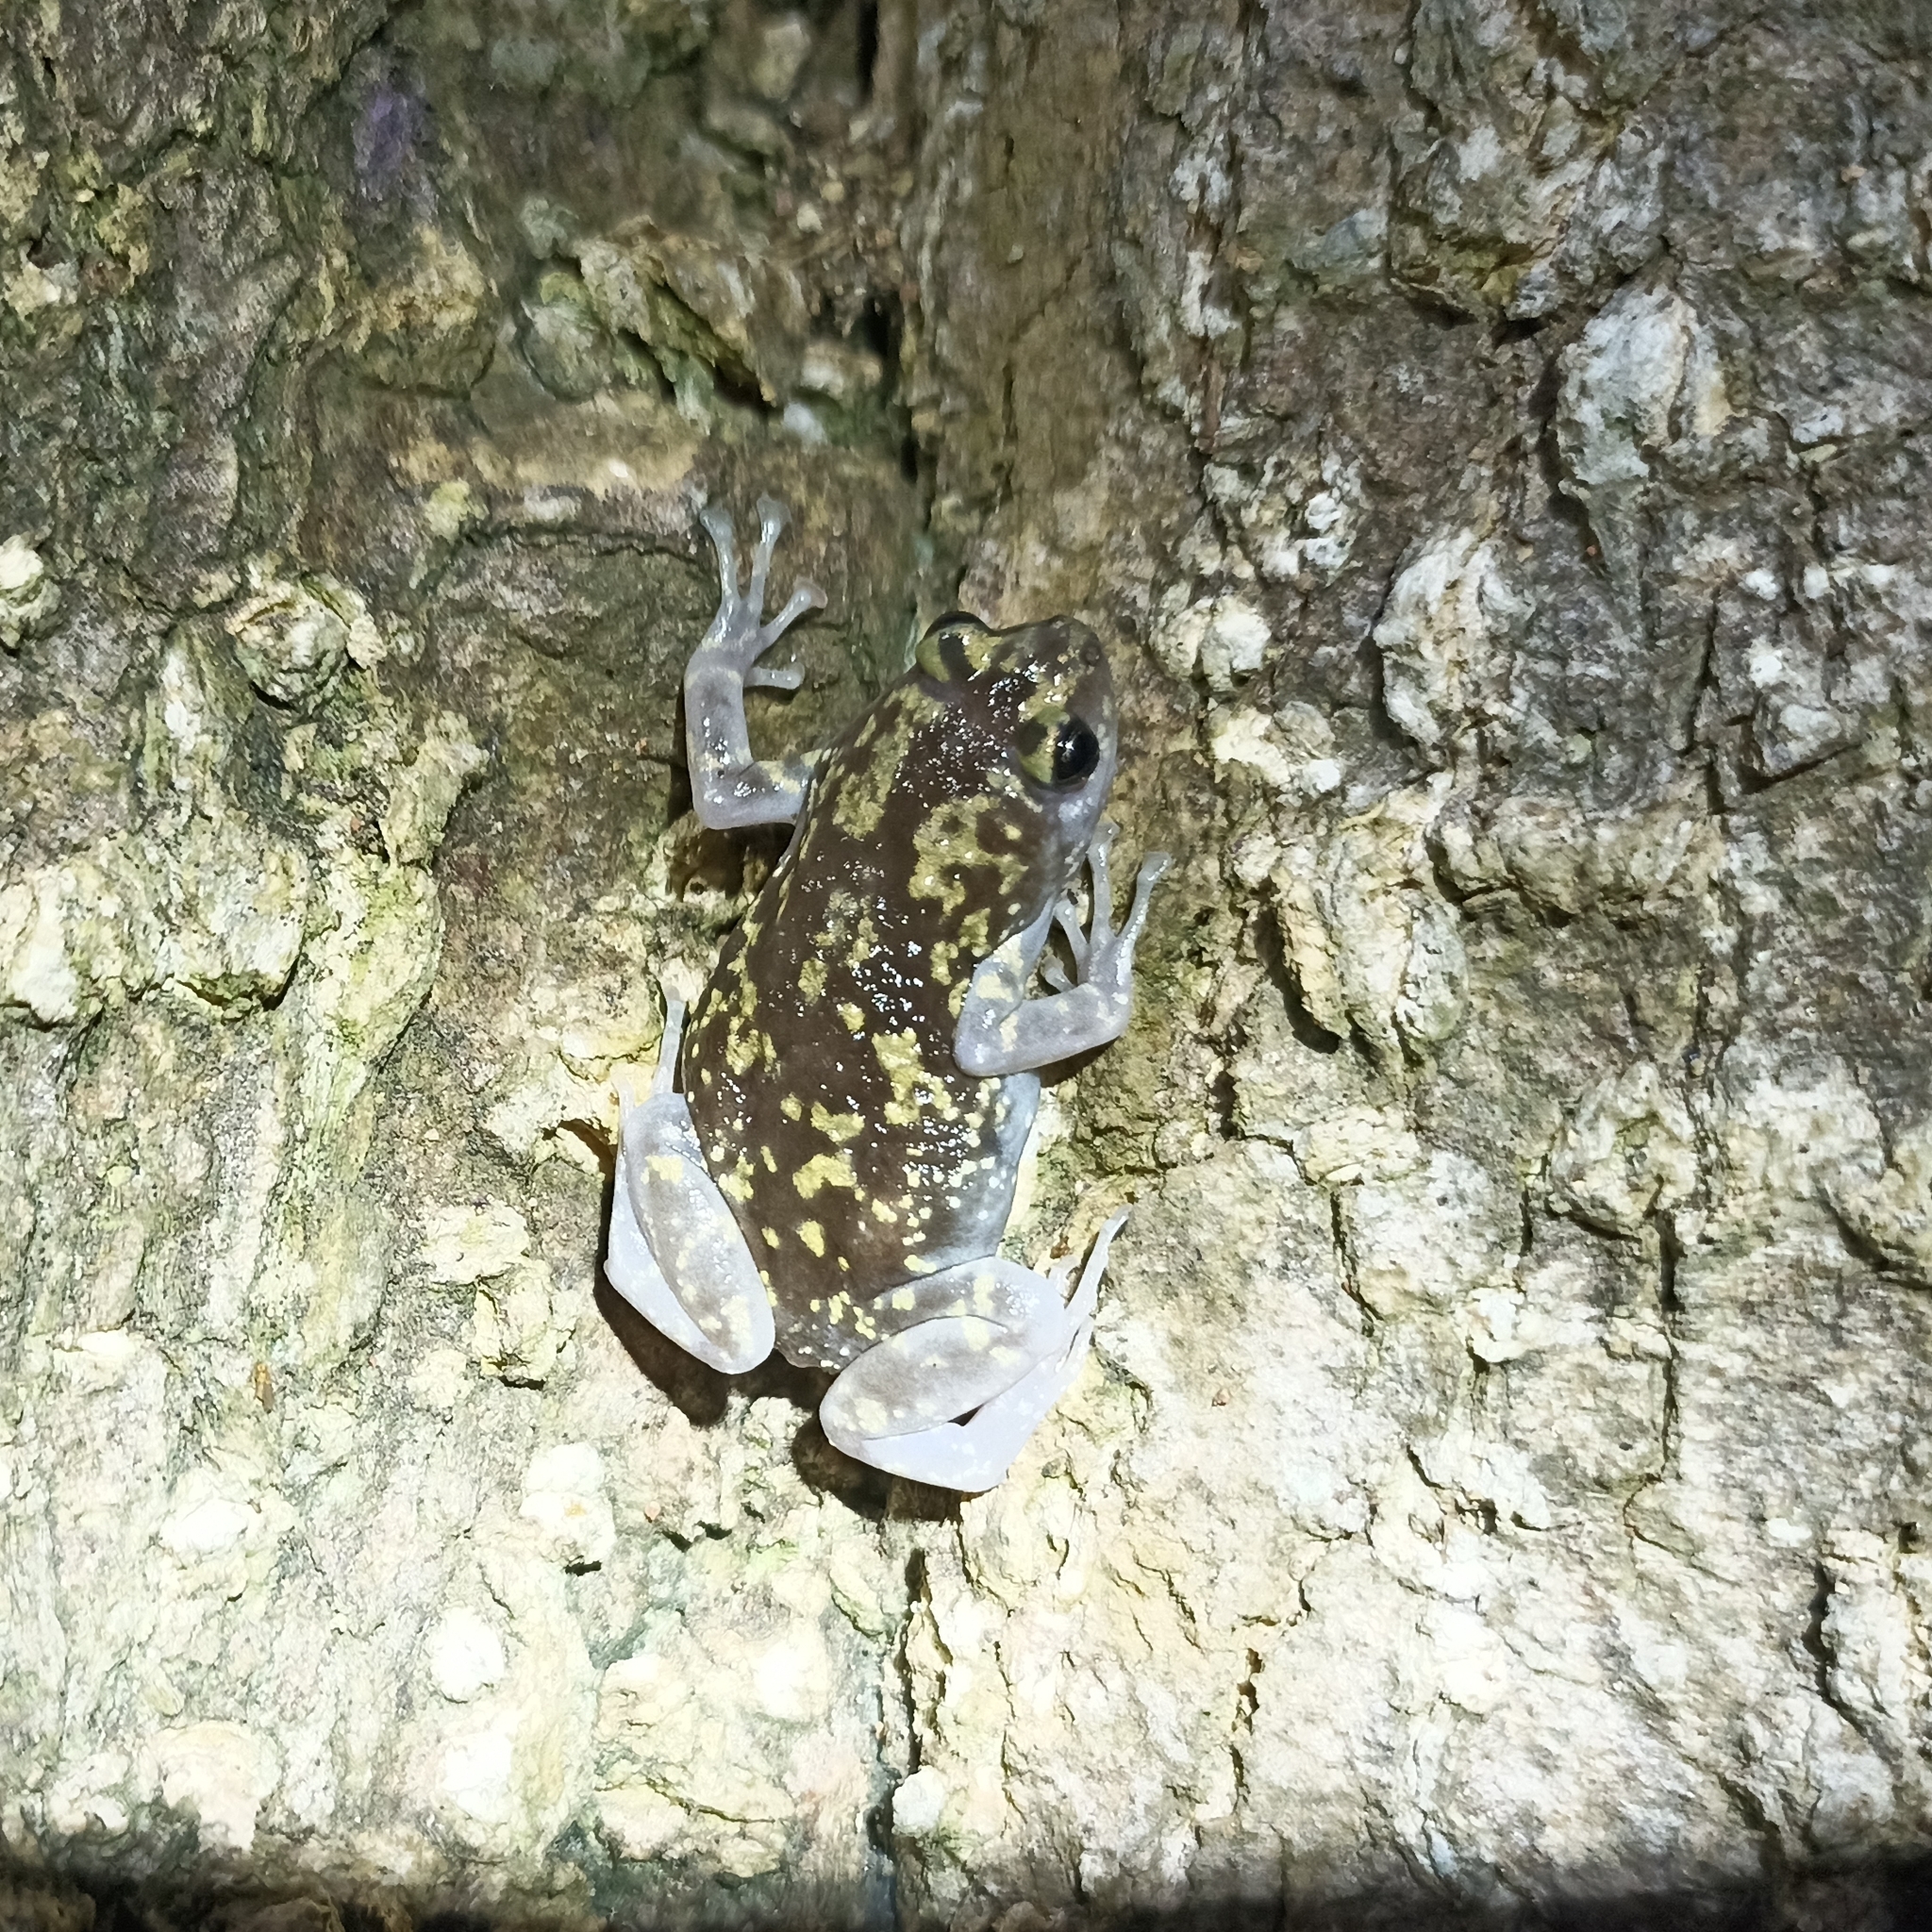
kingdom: Animalia
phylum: Chordata
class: Amphibia
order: Anura
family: Microhylidae
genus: Uperodon
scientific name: Uperodon variegatus
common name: Eluru dot frog
